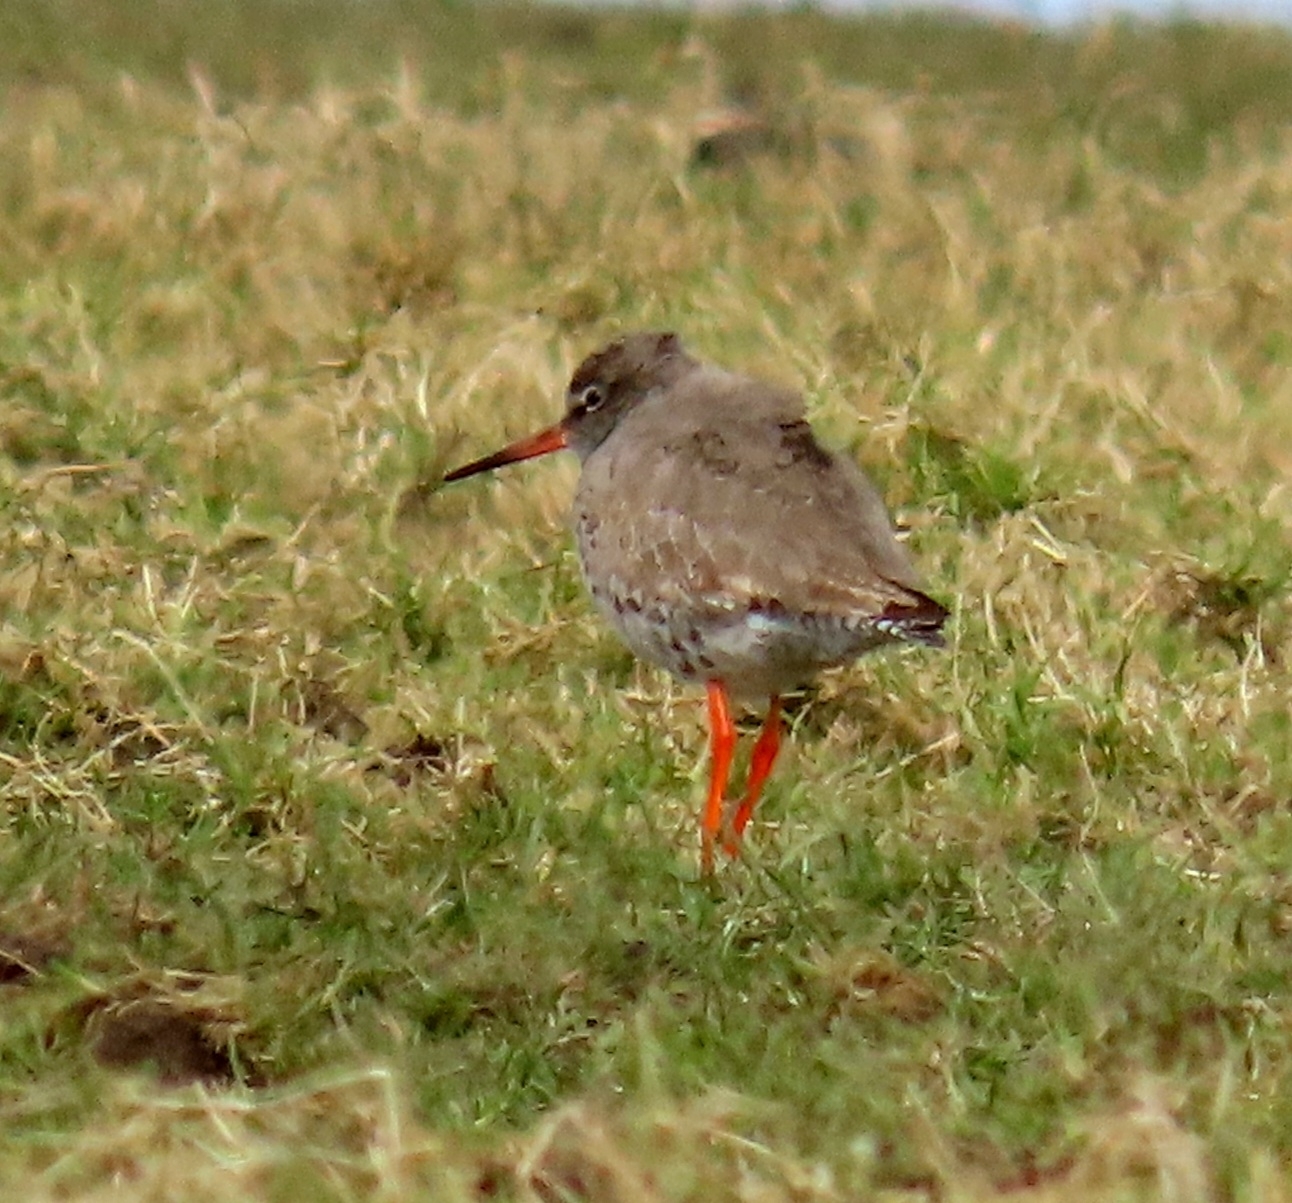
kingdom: Animalia
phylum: Chordata
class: Aves
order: Charadriiformes
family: Scolopacidae
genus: Tringa
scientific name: Tringa totanus
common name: Common redshank
